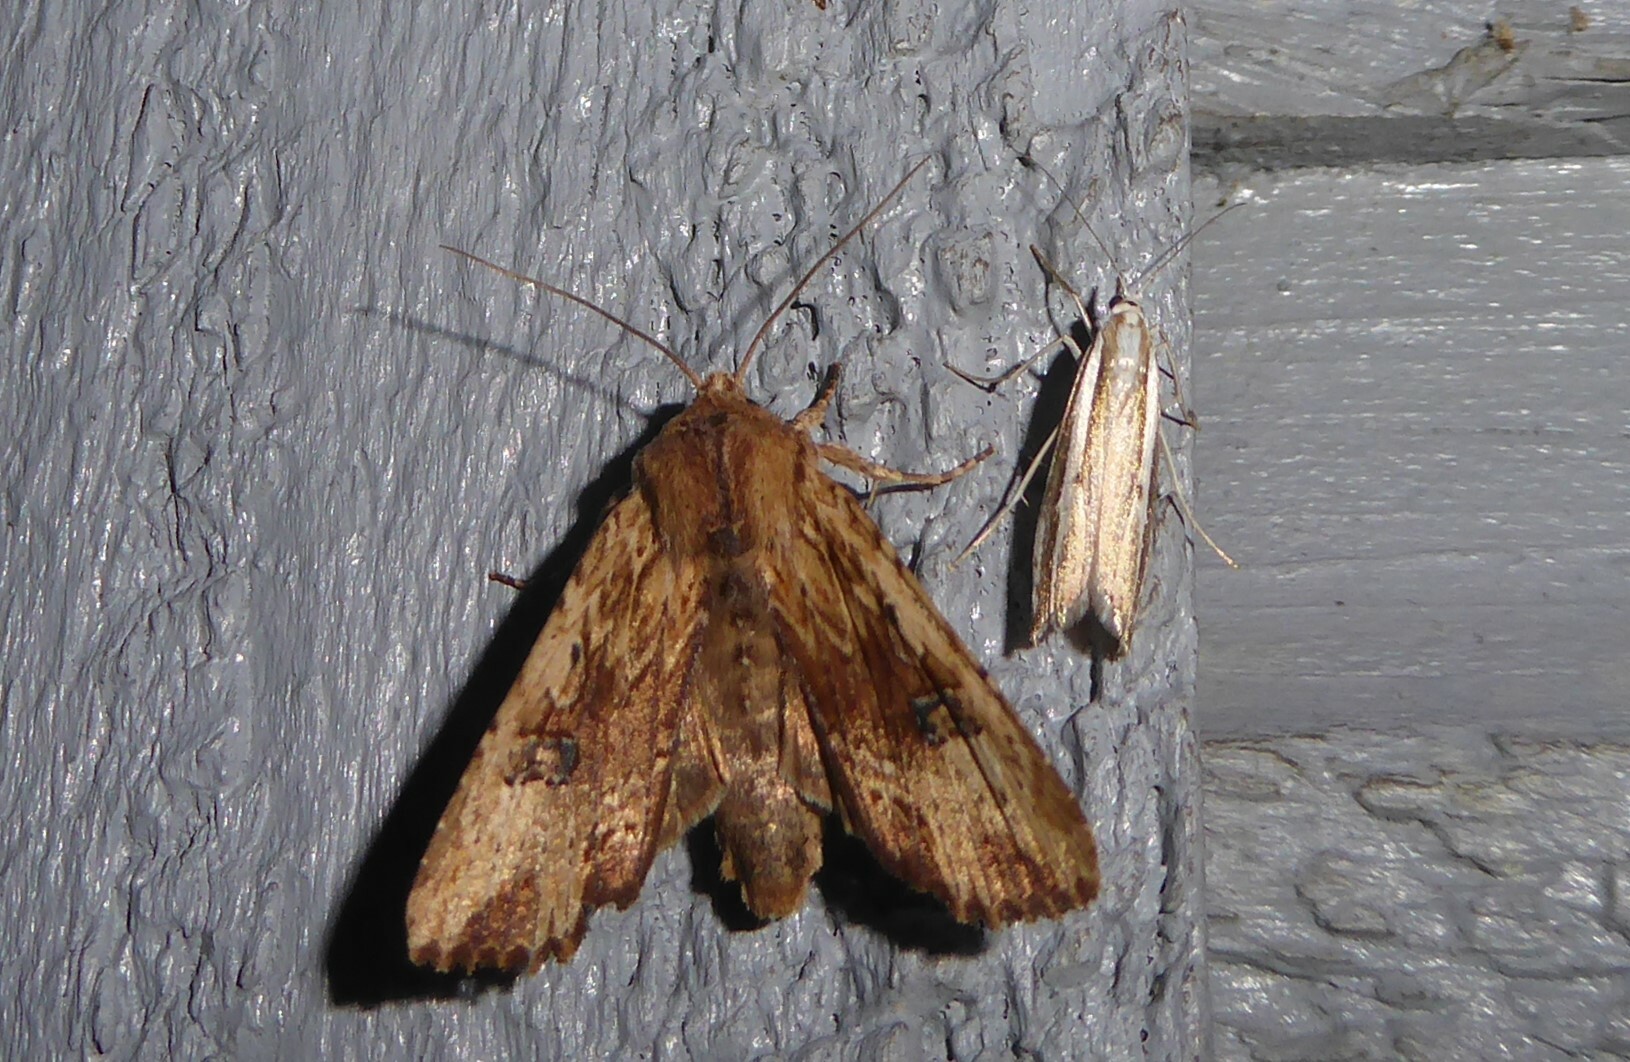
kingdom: Animalia
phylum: Arthropoda
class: Insecta
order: Lepidoptera
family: Noctuidae
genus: Ichneutica
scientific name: Ichneutica
